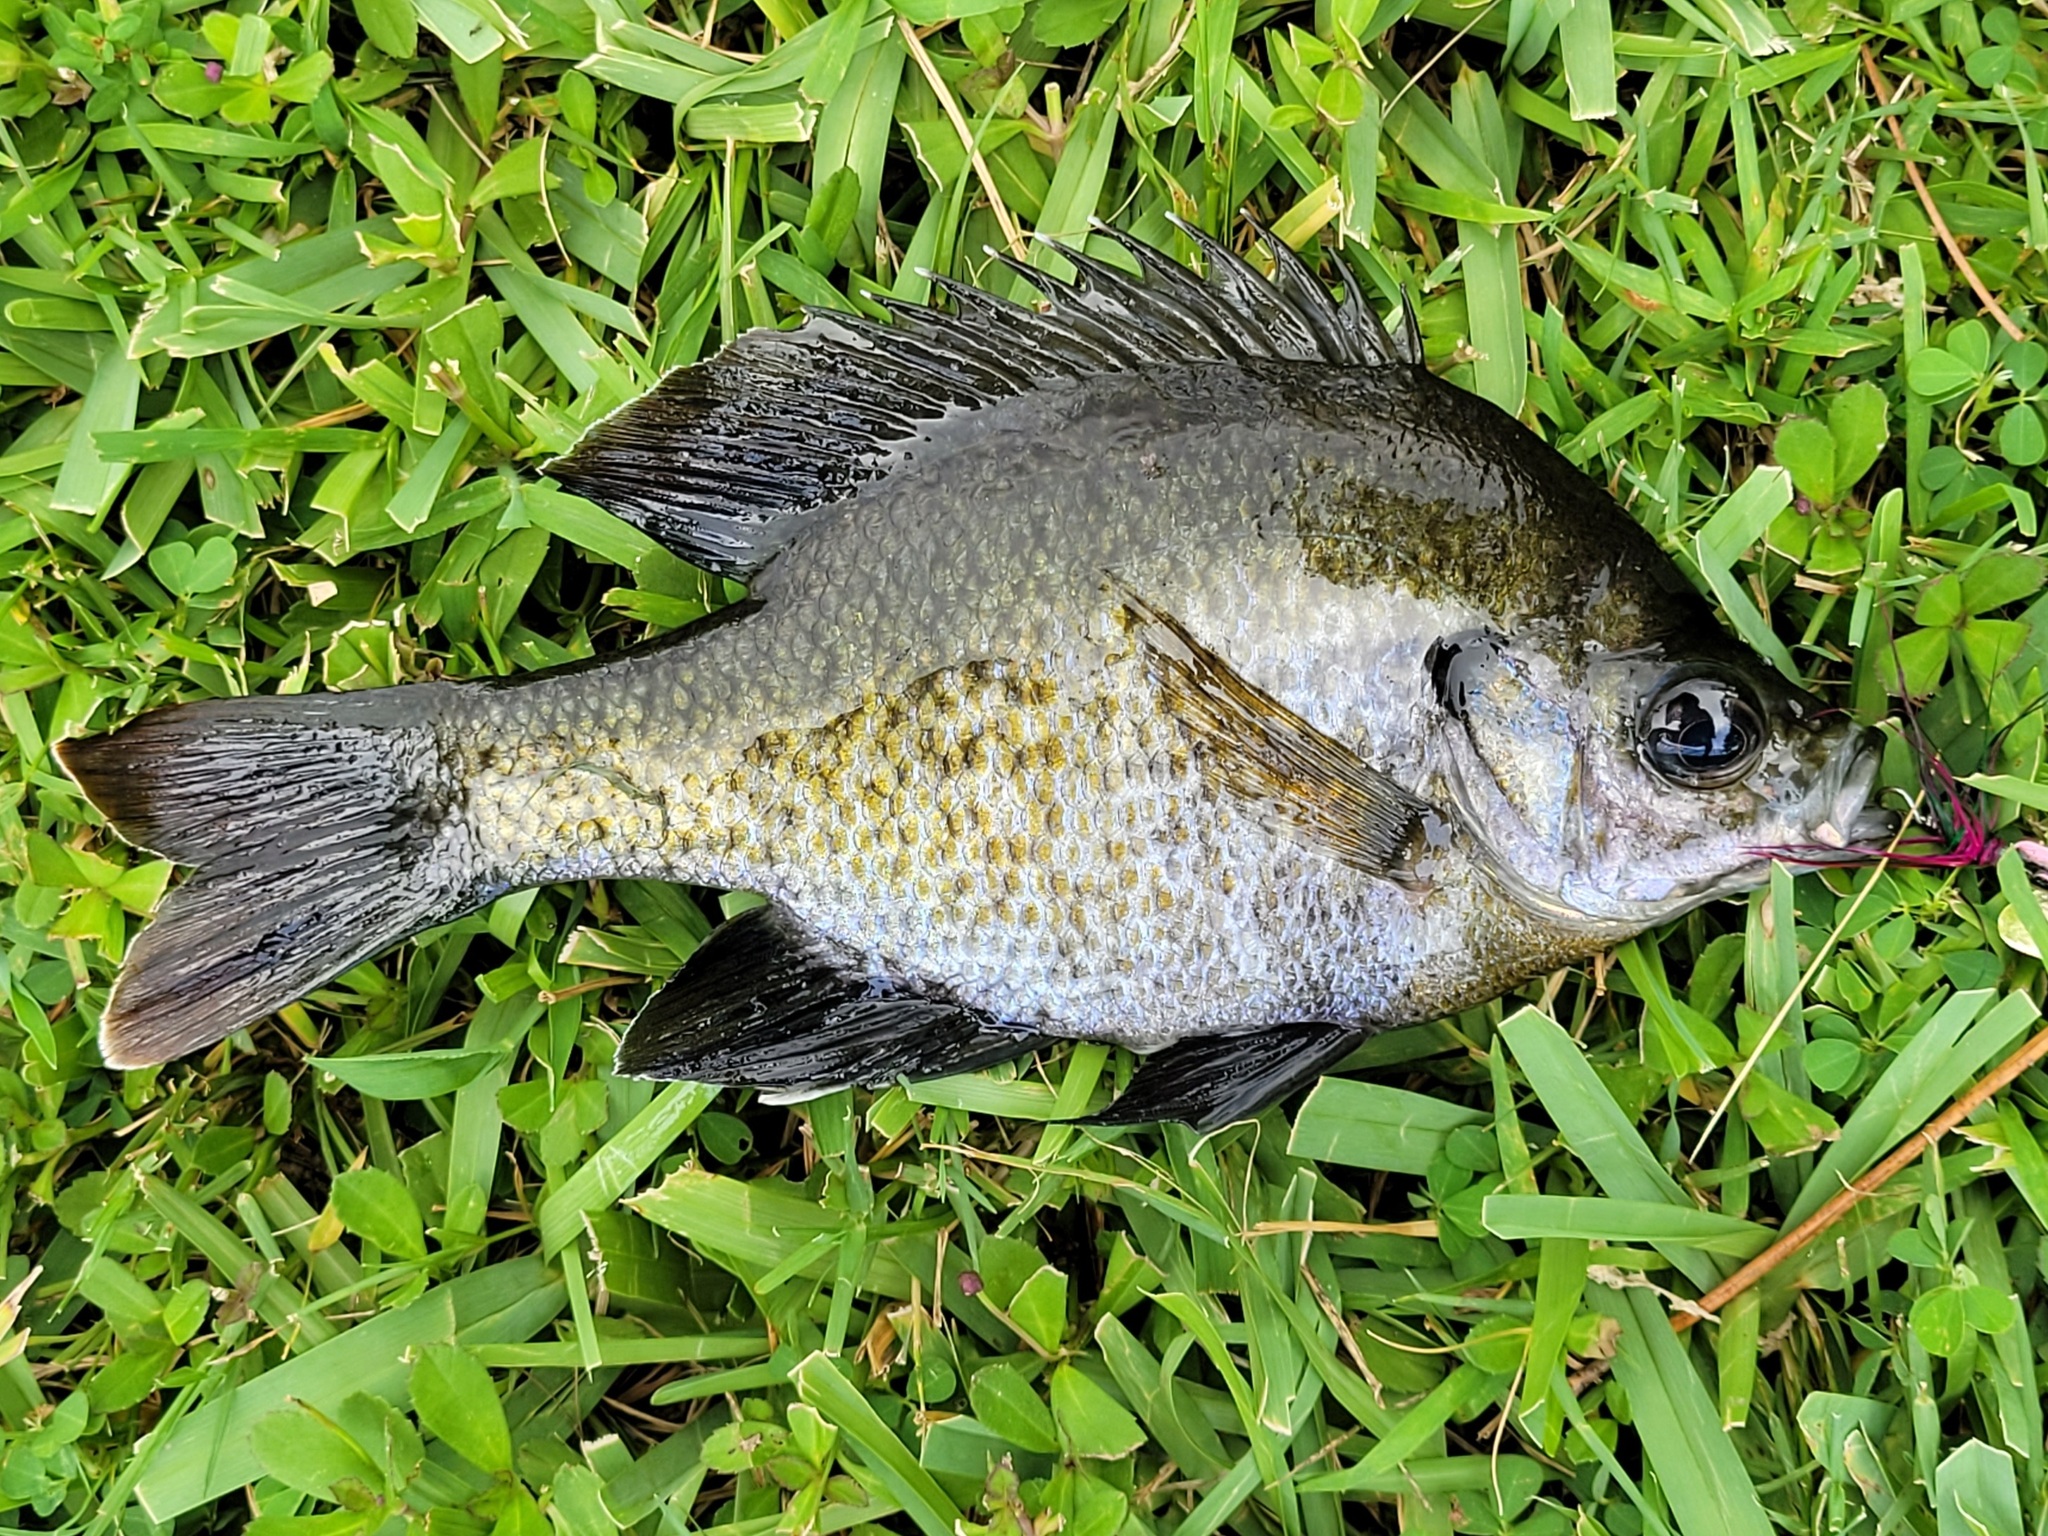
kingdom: Animalia
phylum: Chordata
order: Perciformes
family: Centrarchidae
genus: Lepomis
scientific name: Lepomis macrochirus
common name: Bluegill
